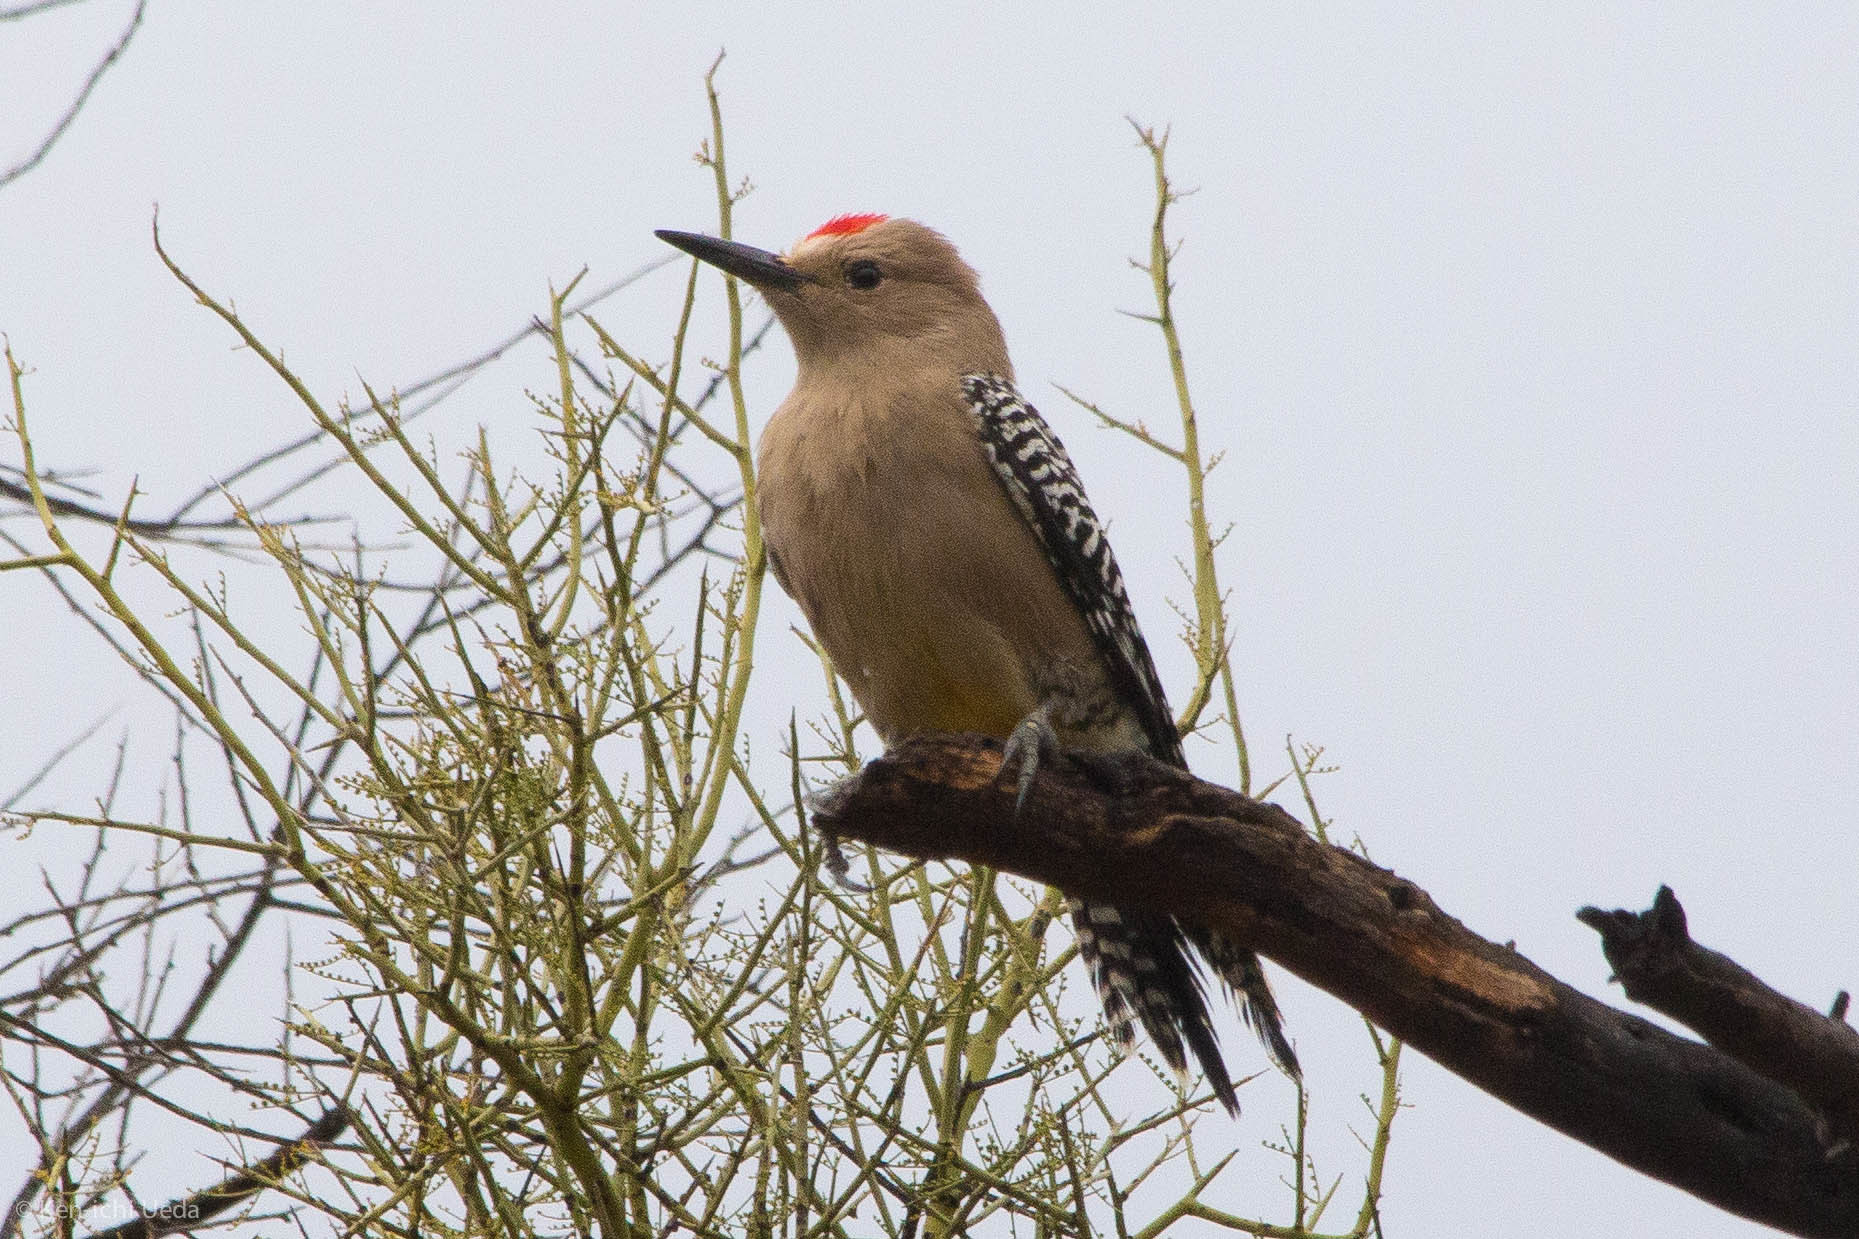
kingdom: Animalia
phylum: Chordata
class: Aves
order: Piciformes
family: Picidae
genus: Melanerpes
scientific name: Melanerpes uropygialis
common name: Gila woodpecker
